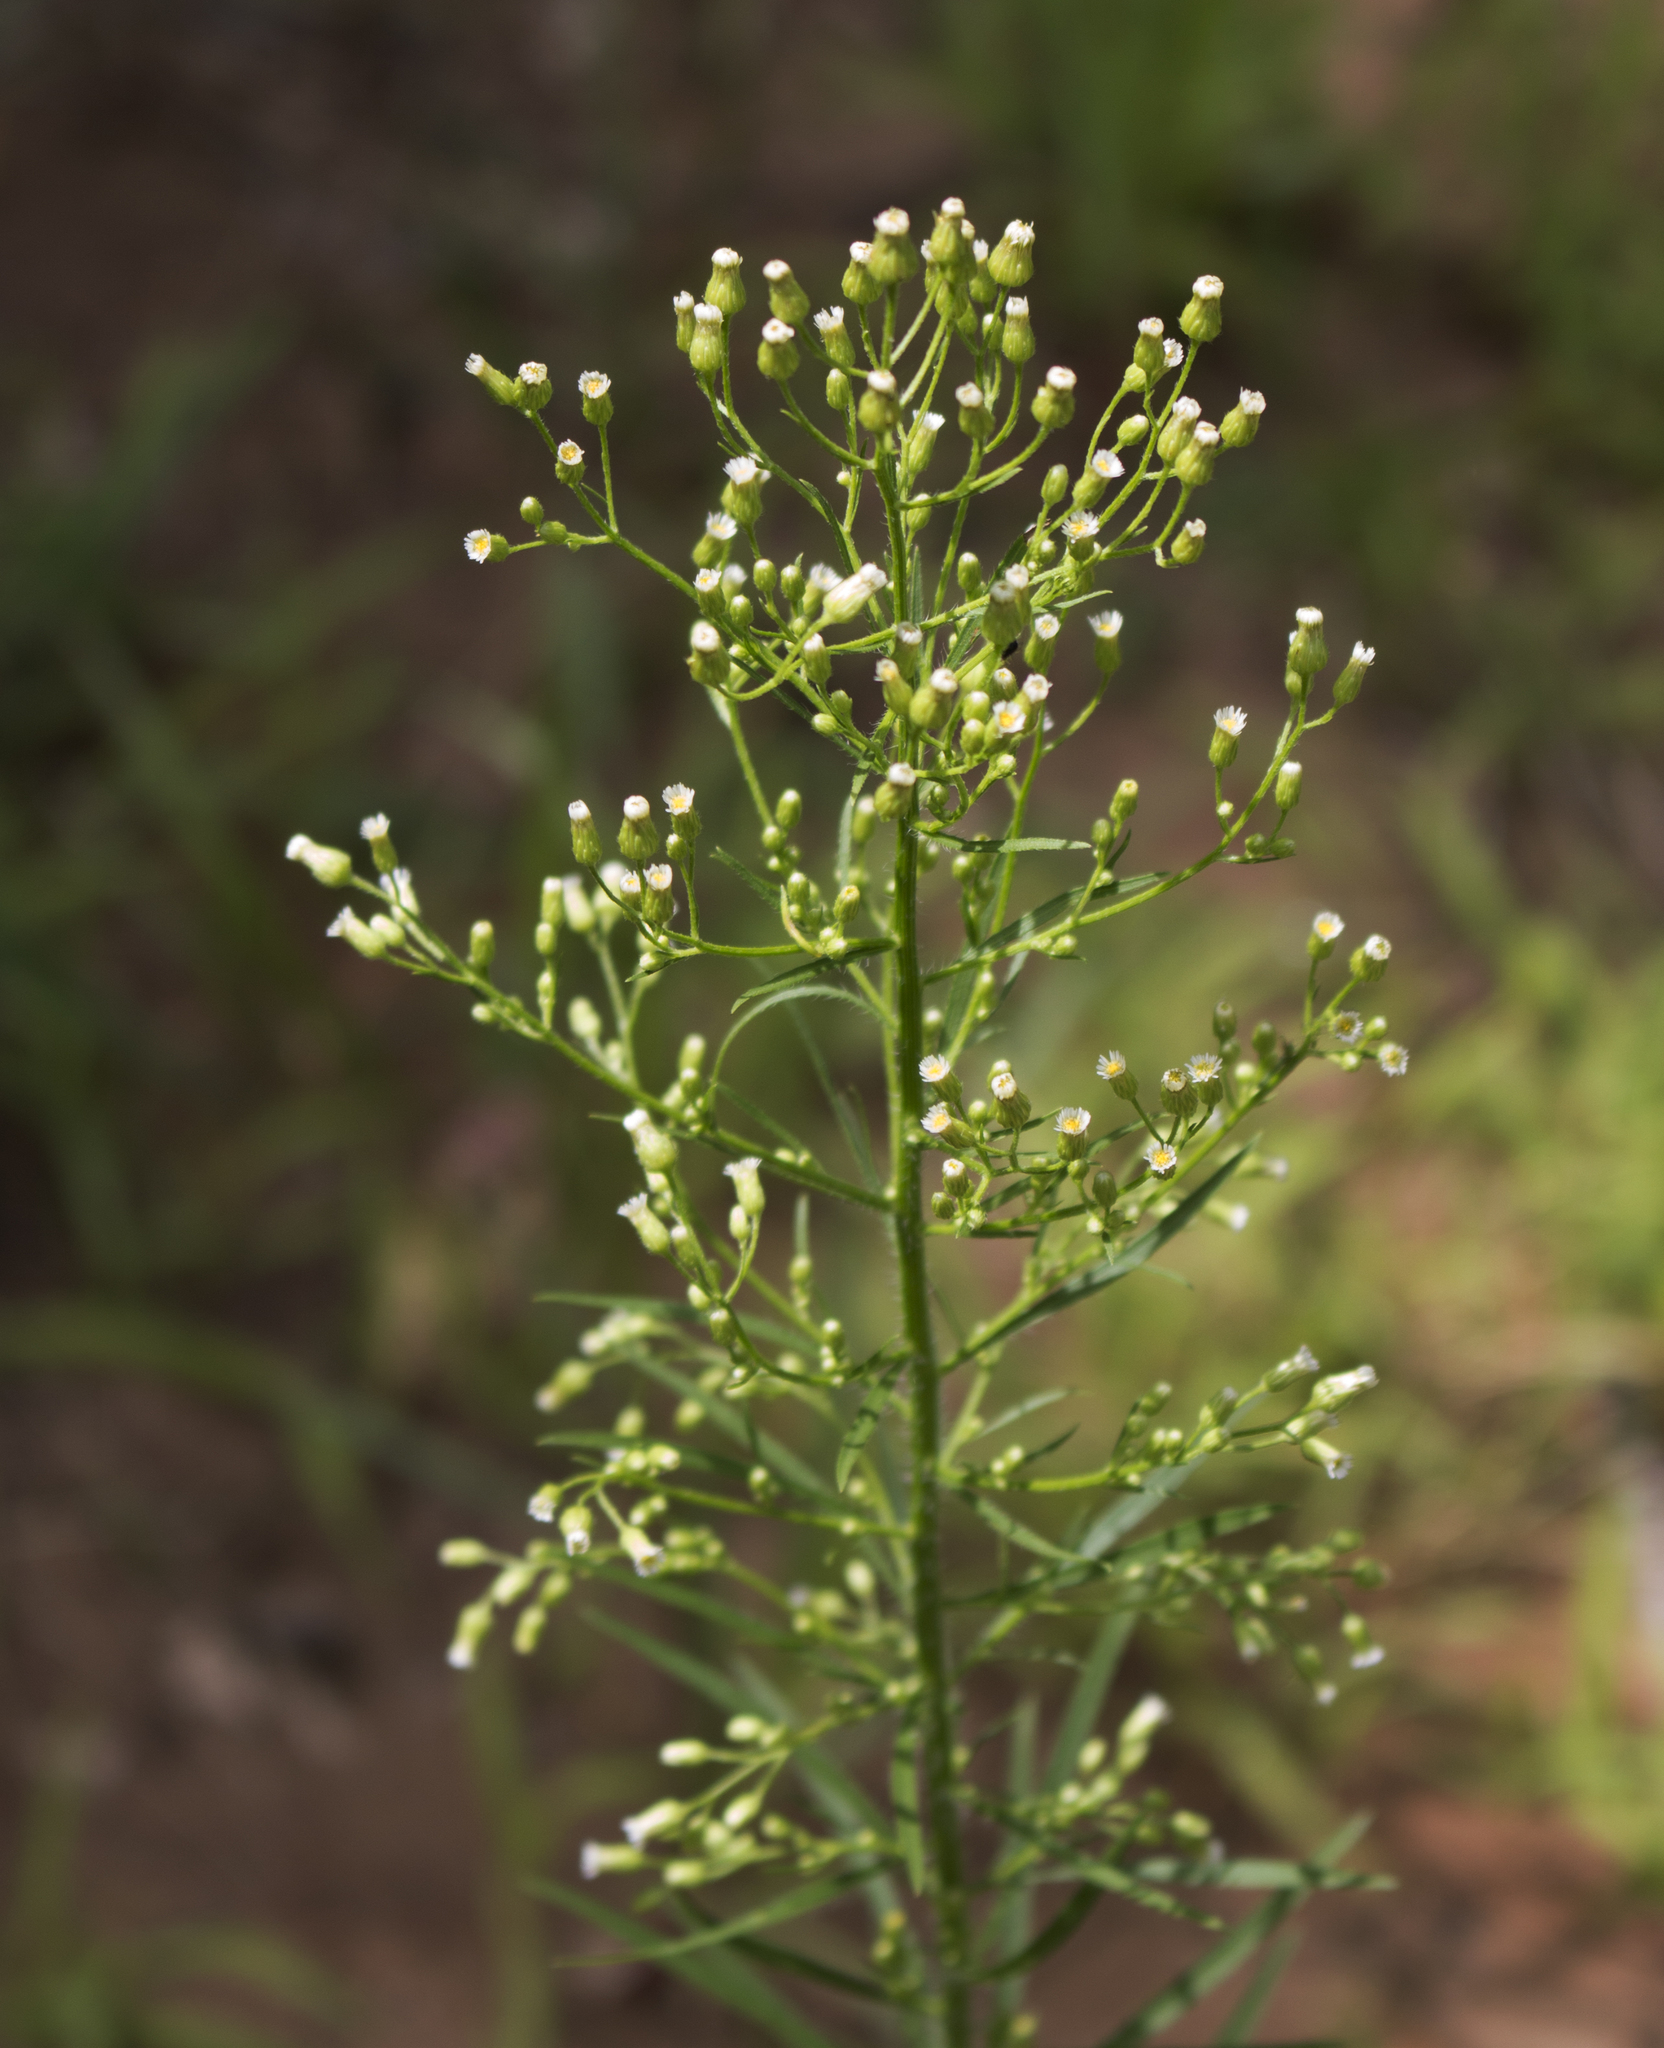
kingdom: Plantae
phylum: Tracheophyta
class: Magnoliopsida
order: Asterales
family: Asteraceae
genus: Erigeron
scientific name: Erigeron canadensis
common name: Canadian fleabane
